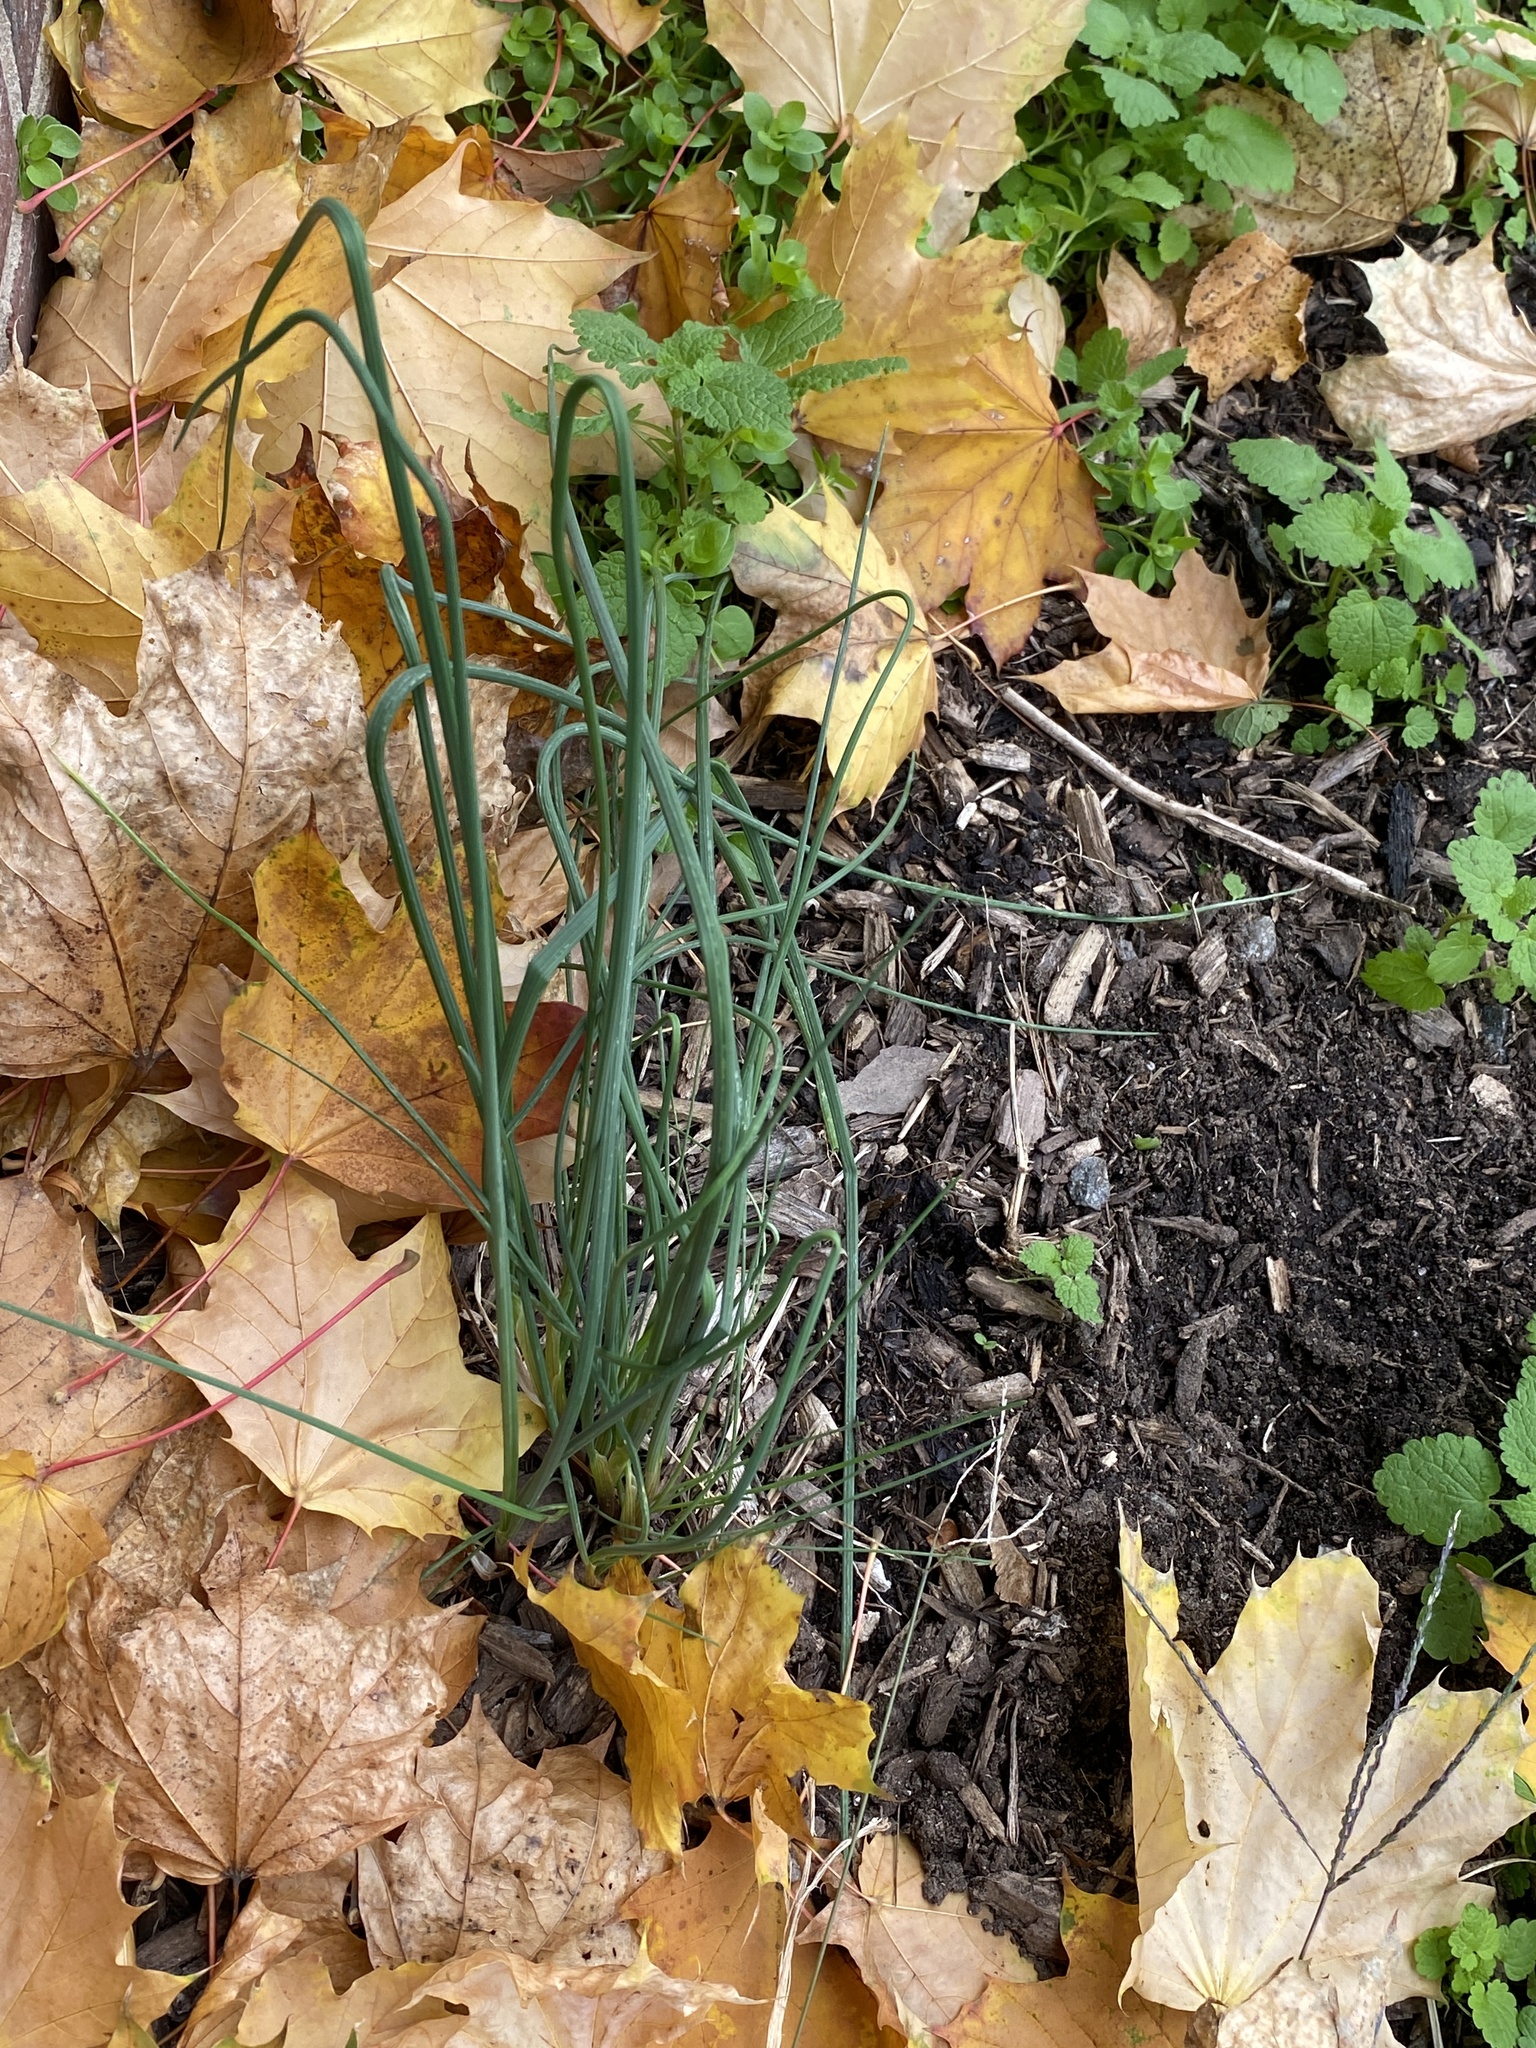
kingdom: Plantae
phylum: Tracheophyta
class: Liliopsida
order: Asparagales
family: Amaryllidaceae
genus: Allium
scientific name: Allium vineale
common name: Crow garlic
